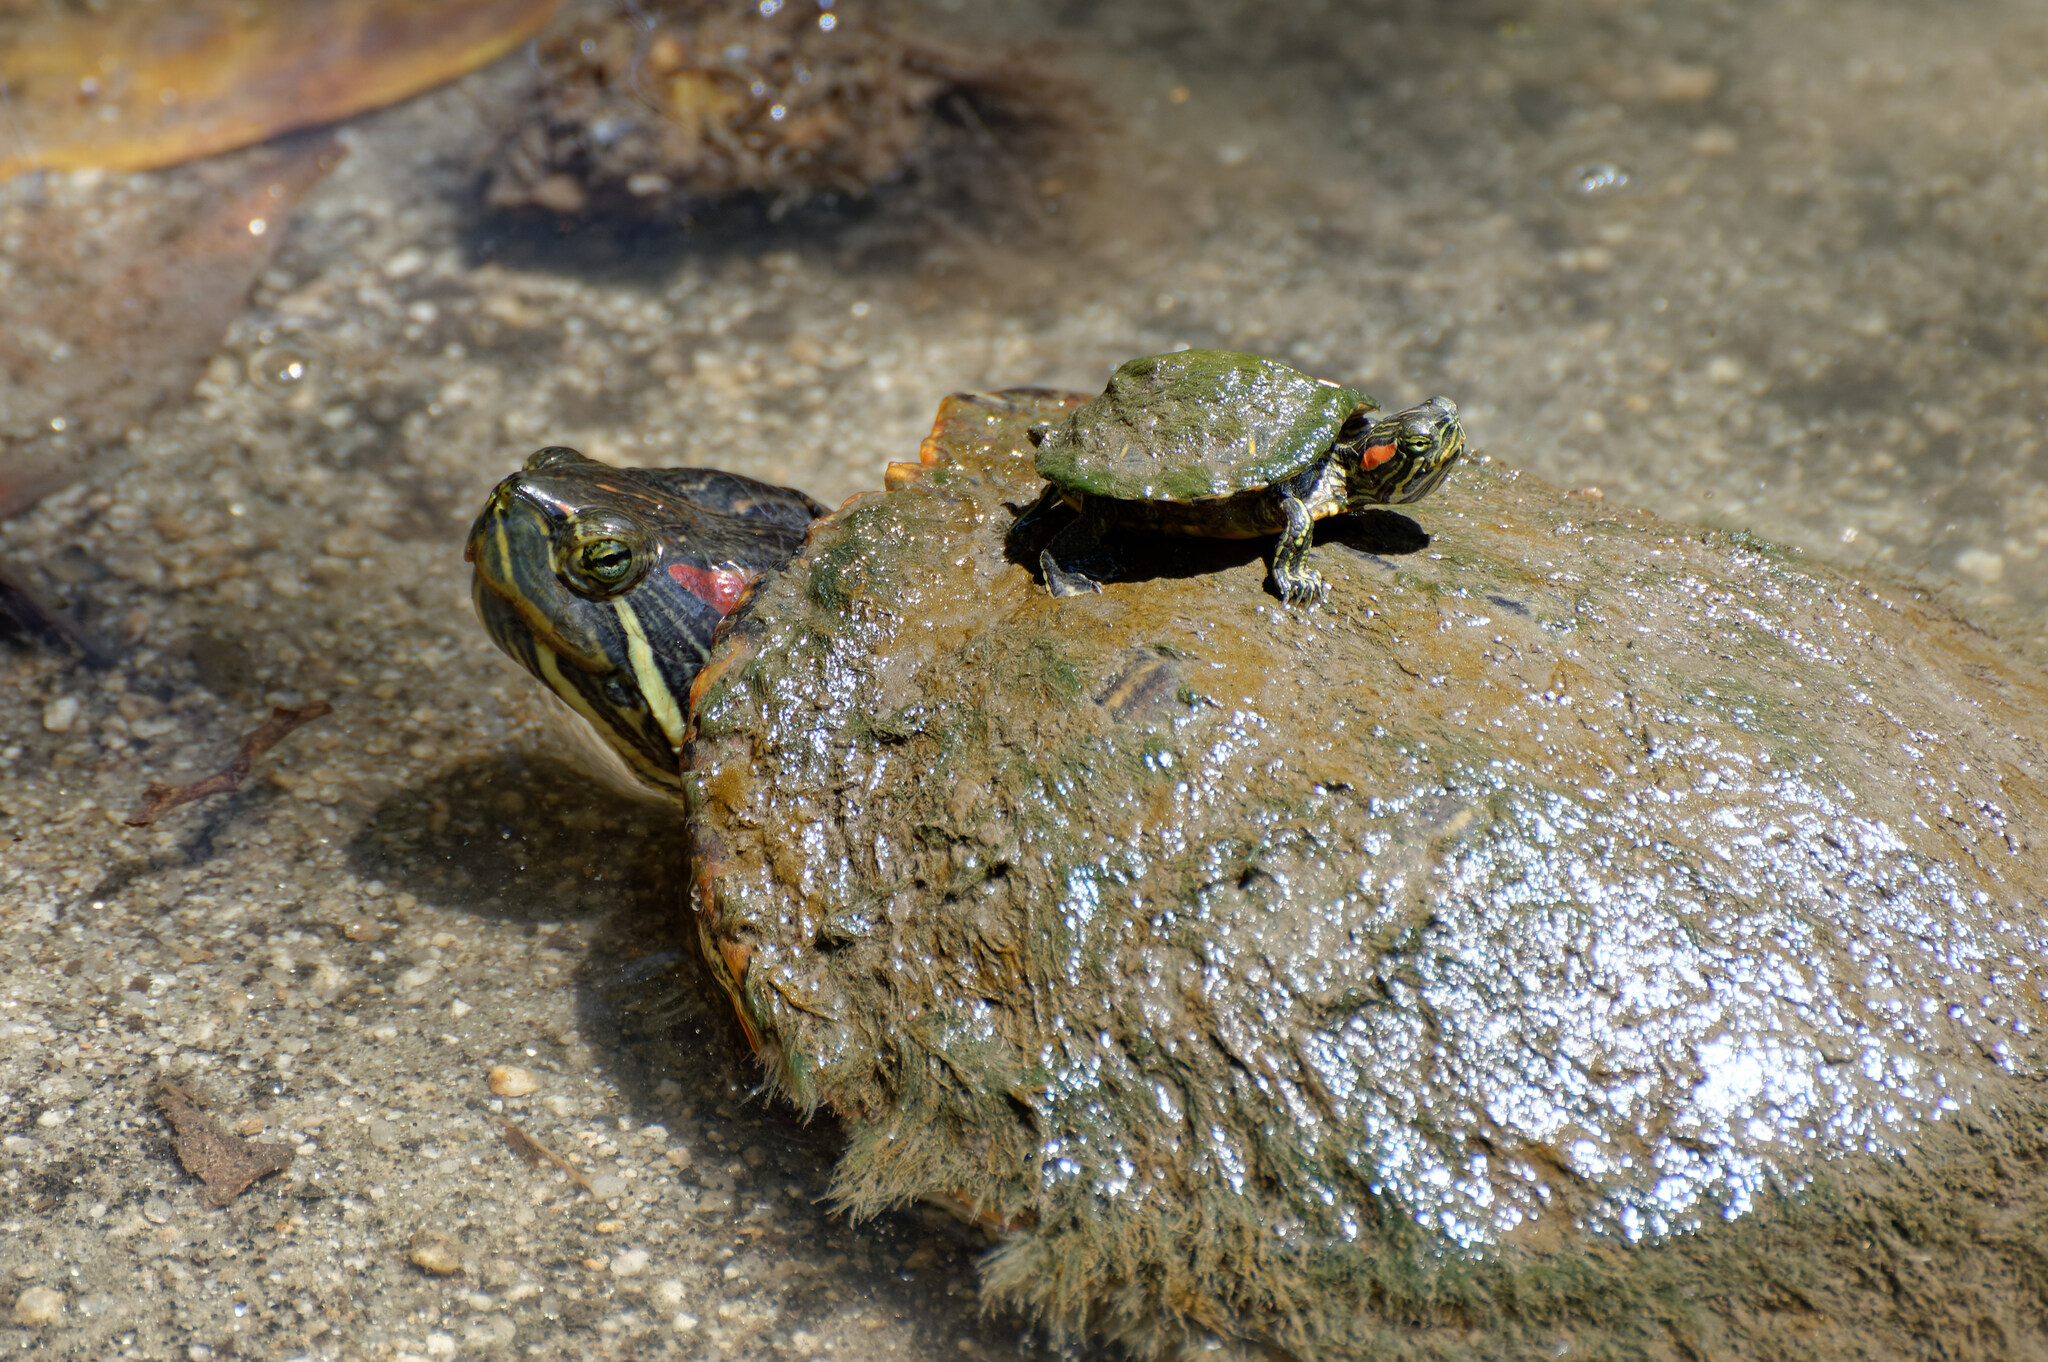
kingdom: Animalia
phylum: Chordata
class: Testudines
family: Emydidae
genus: Trachemys
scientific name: Trachemys scripta
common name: Slider
